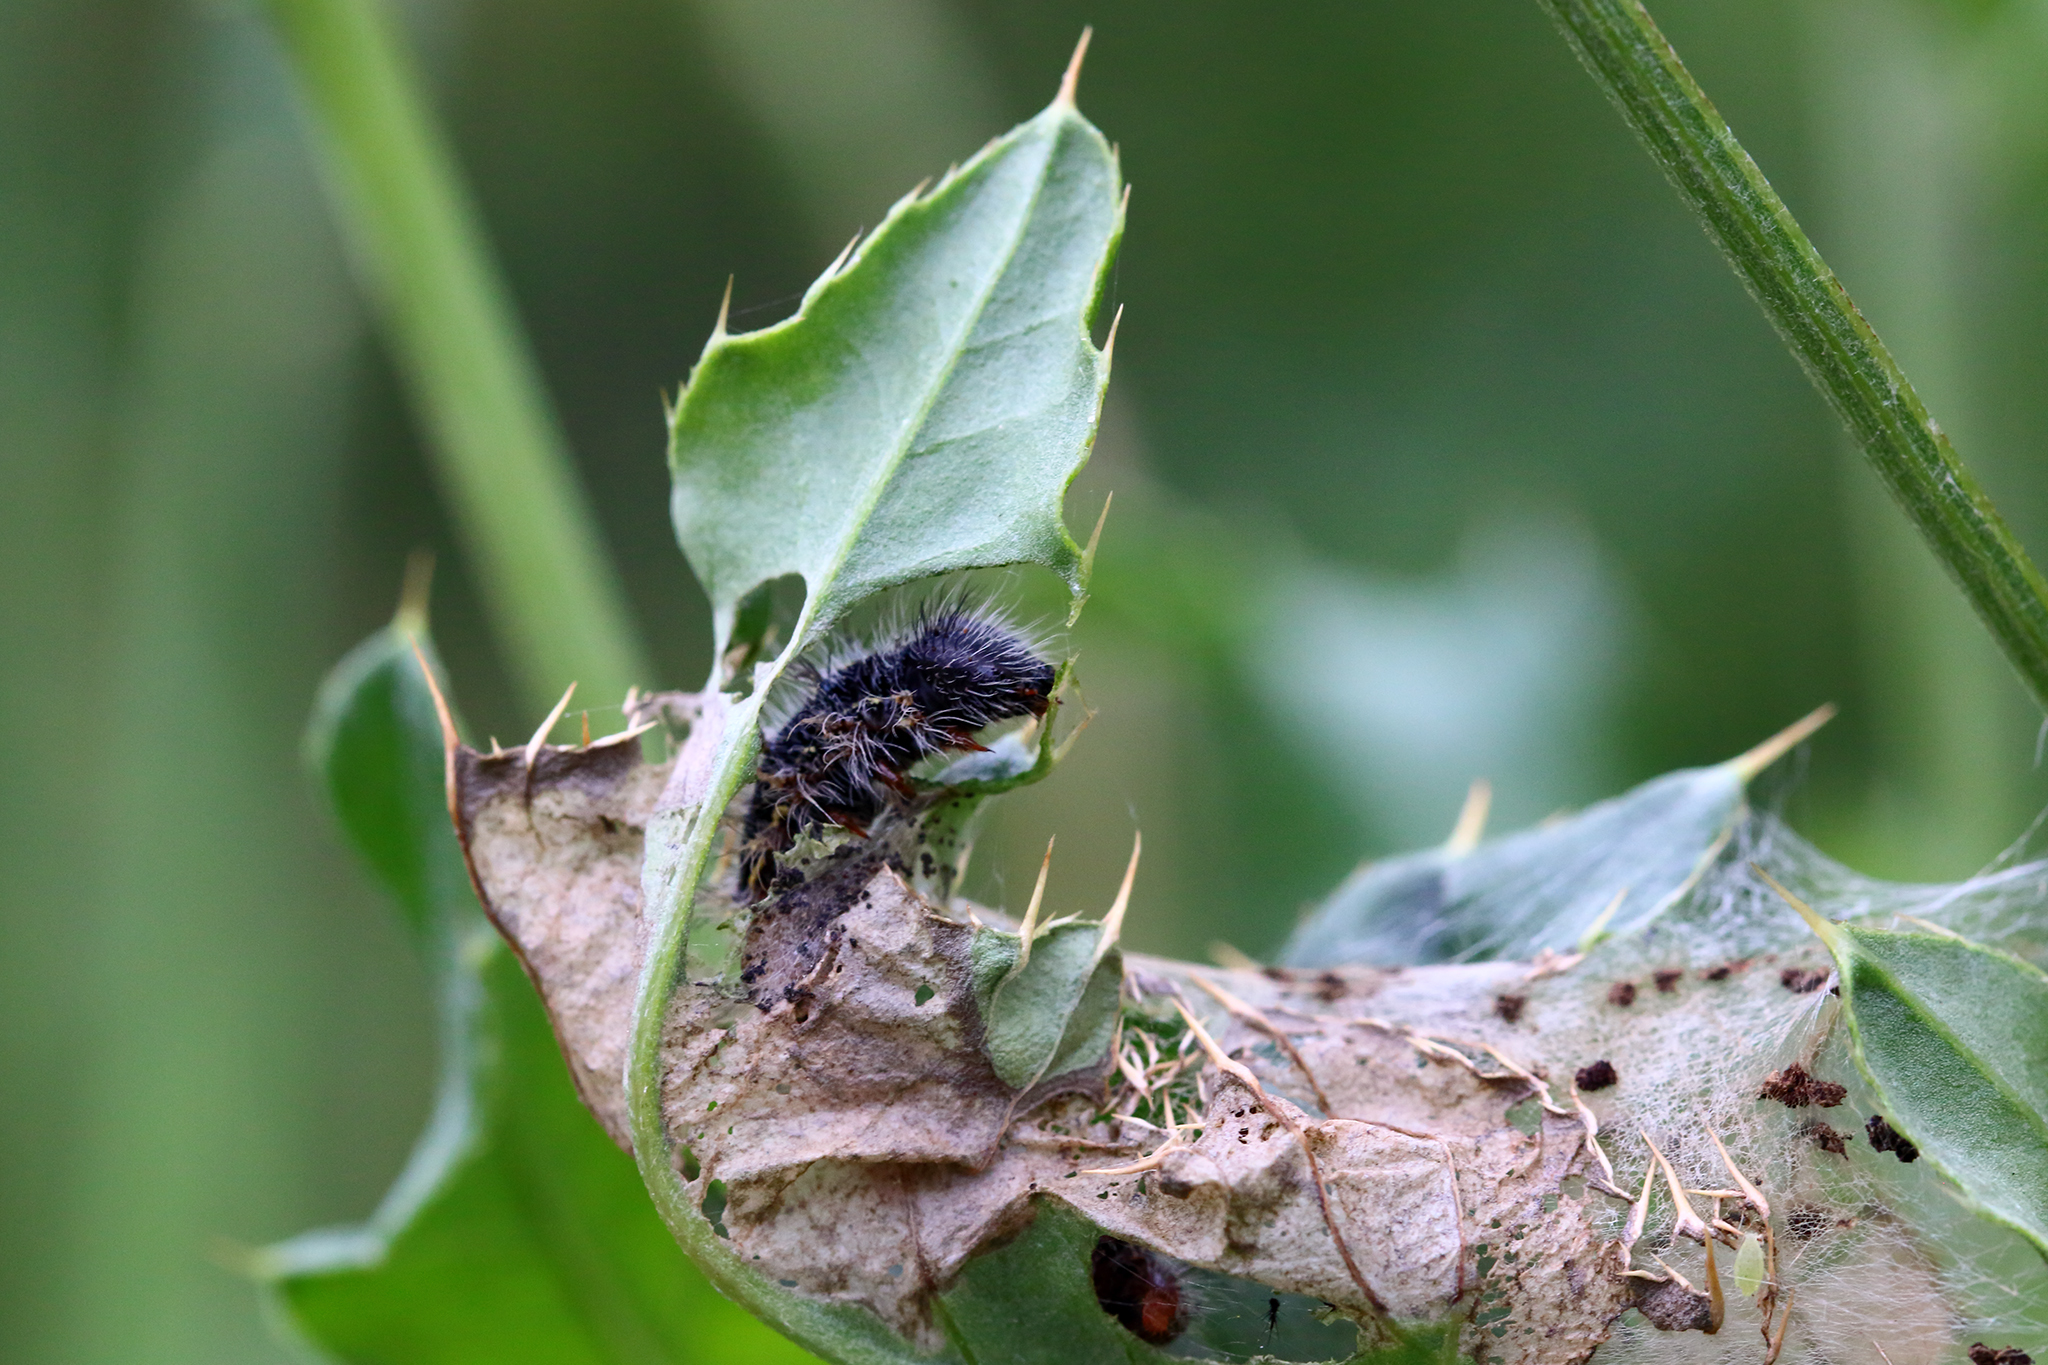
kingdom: Animalia
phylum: Arthropoda
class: Insecta
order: Lepidoptera
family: Nymphalidae
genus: Vanessa
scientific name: Vanessa cardui
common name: Painted lady
